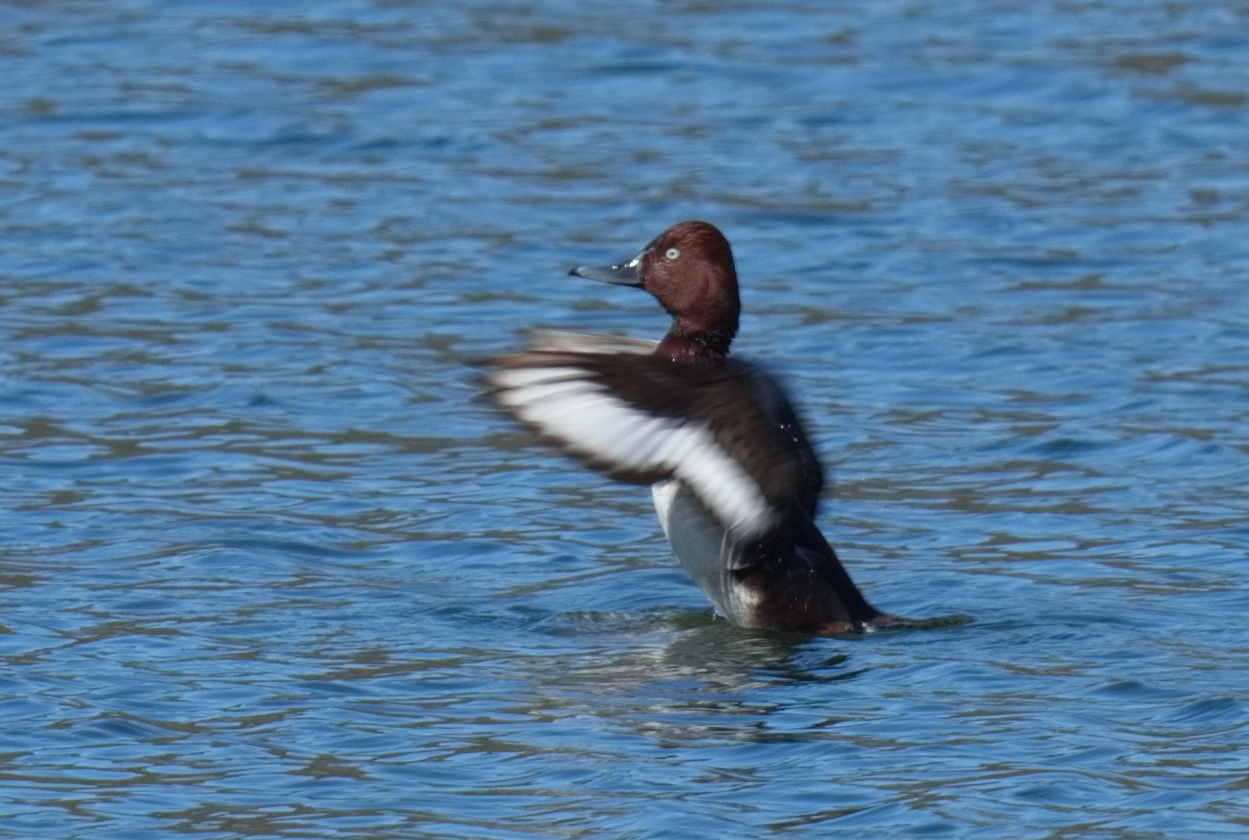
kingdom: Animalia
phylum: Chordata
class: Aves
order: Anseriformes
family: Anatidae
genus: Aythya
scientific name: Aythya nyroca
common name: Ferruginous duck
